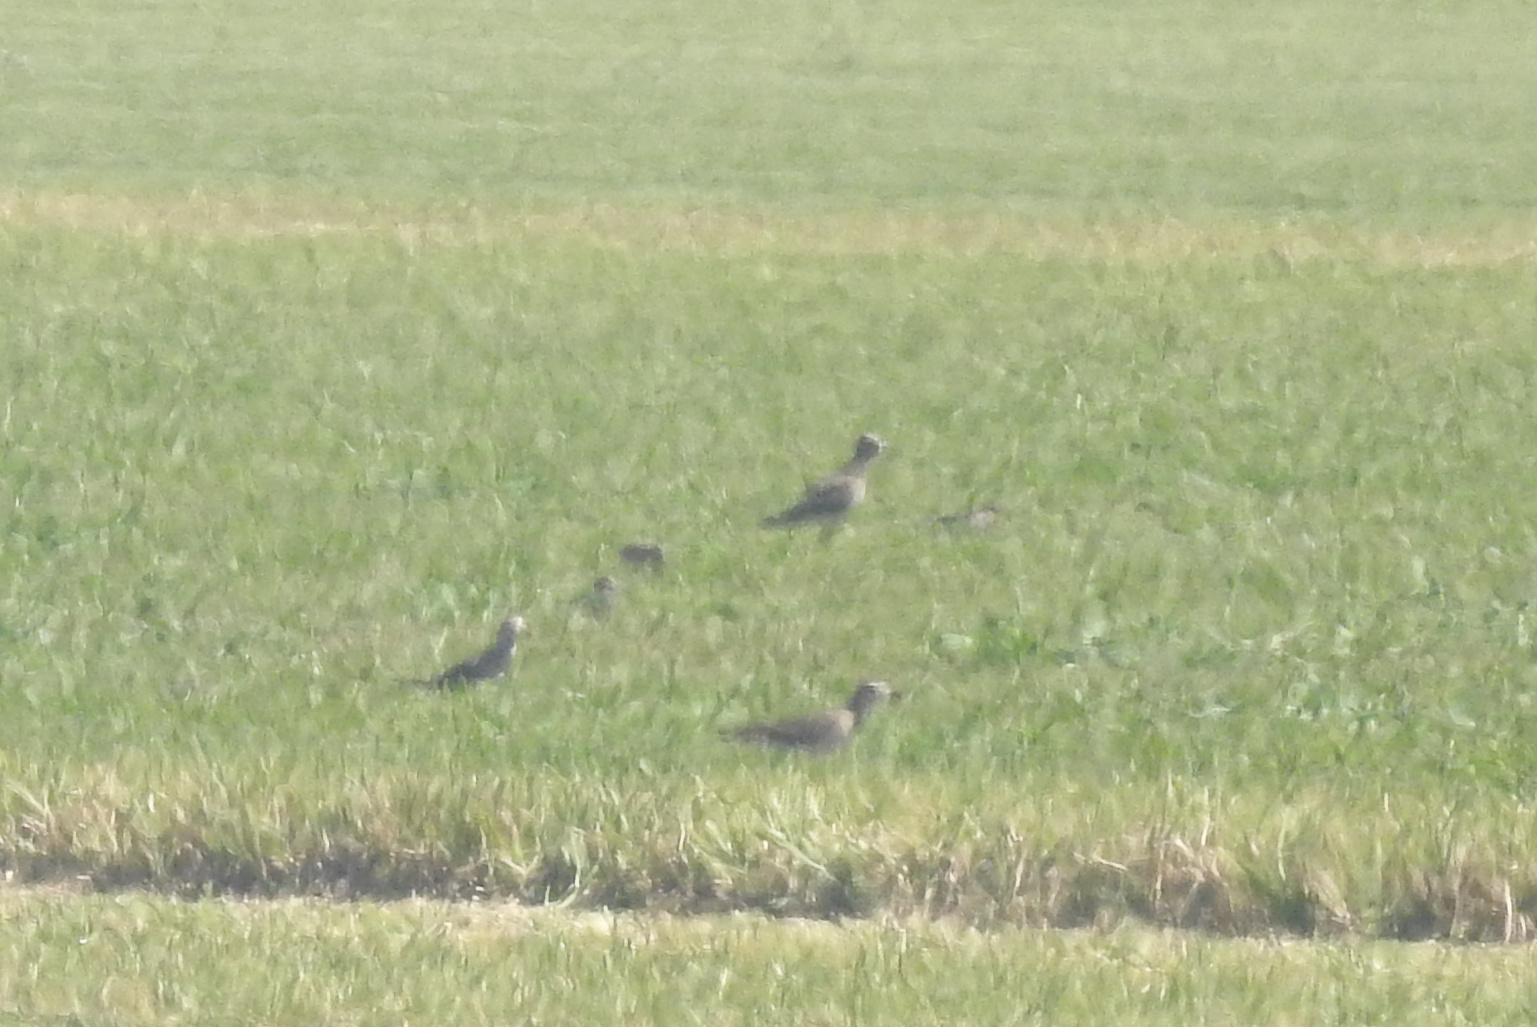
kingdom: Animalia
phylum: Chordata
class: Aves
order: Charadriiformes
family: Charadriidae
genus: Pluvialis
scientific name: Pluvialis dominica
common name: American golden plover
